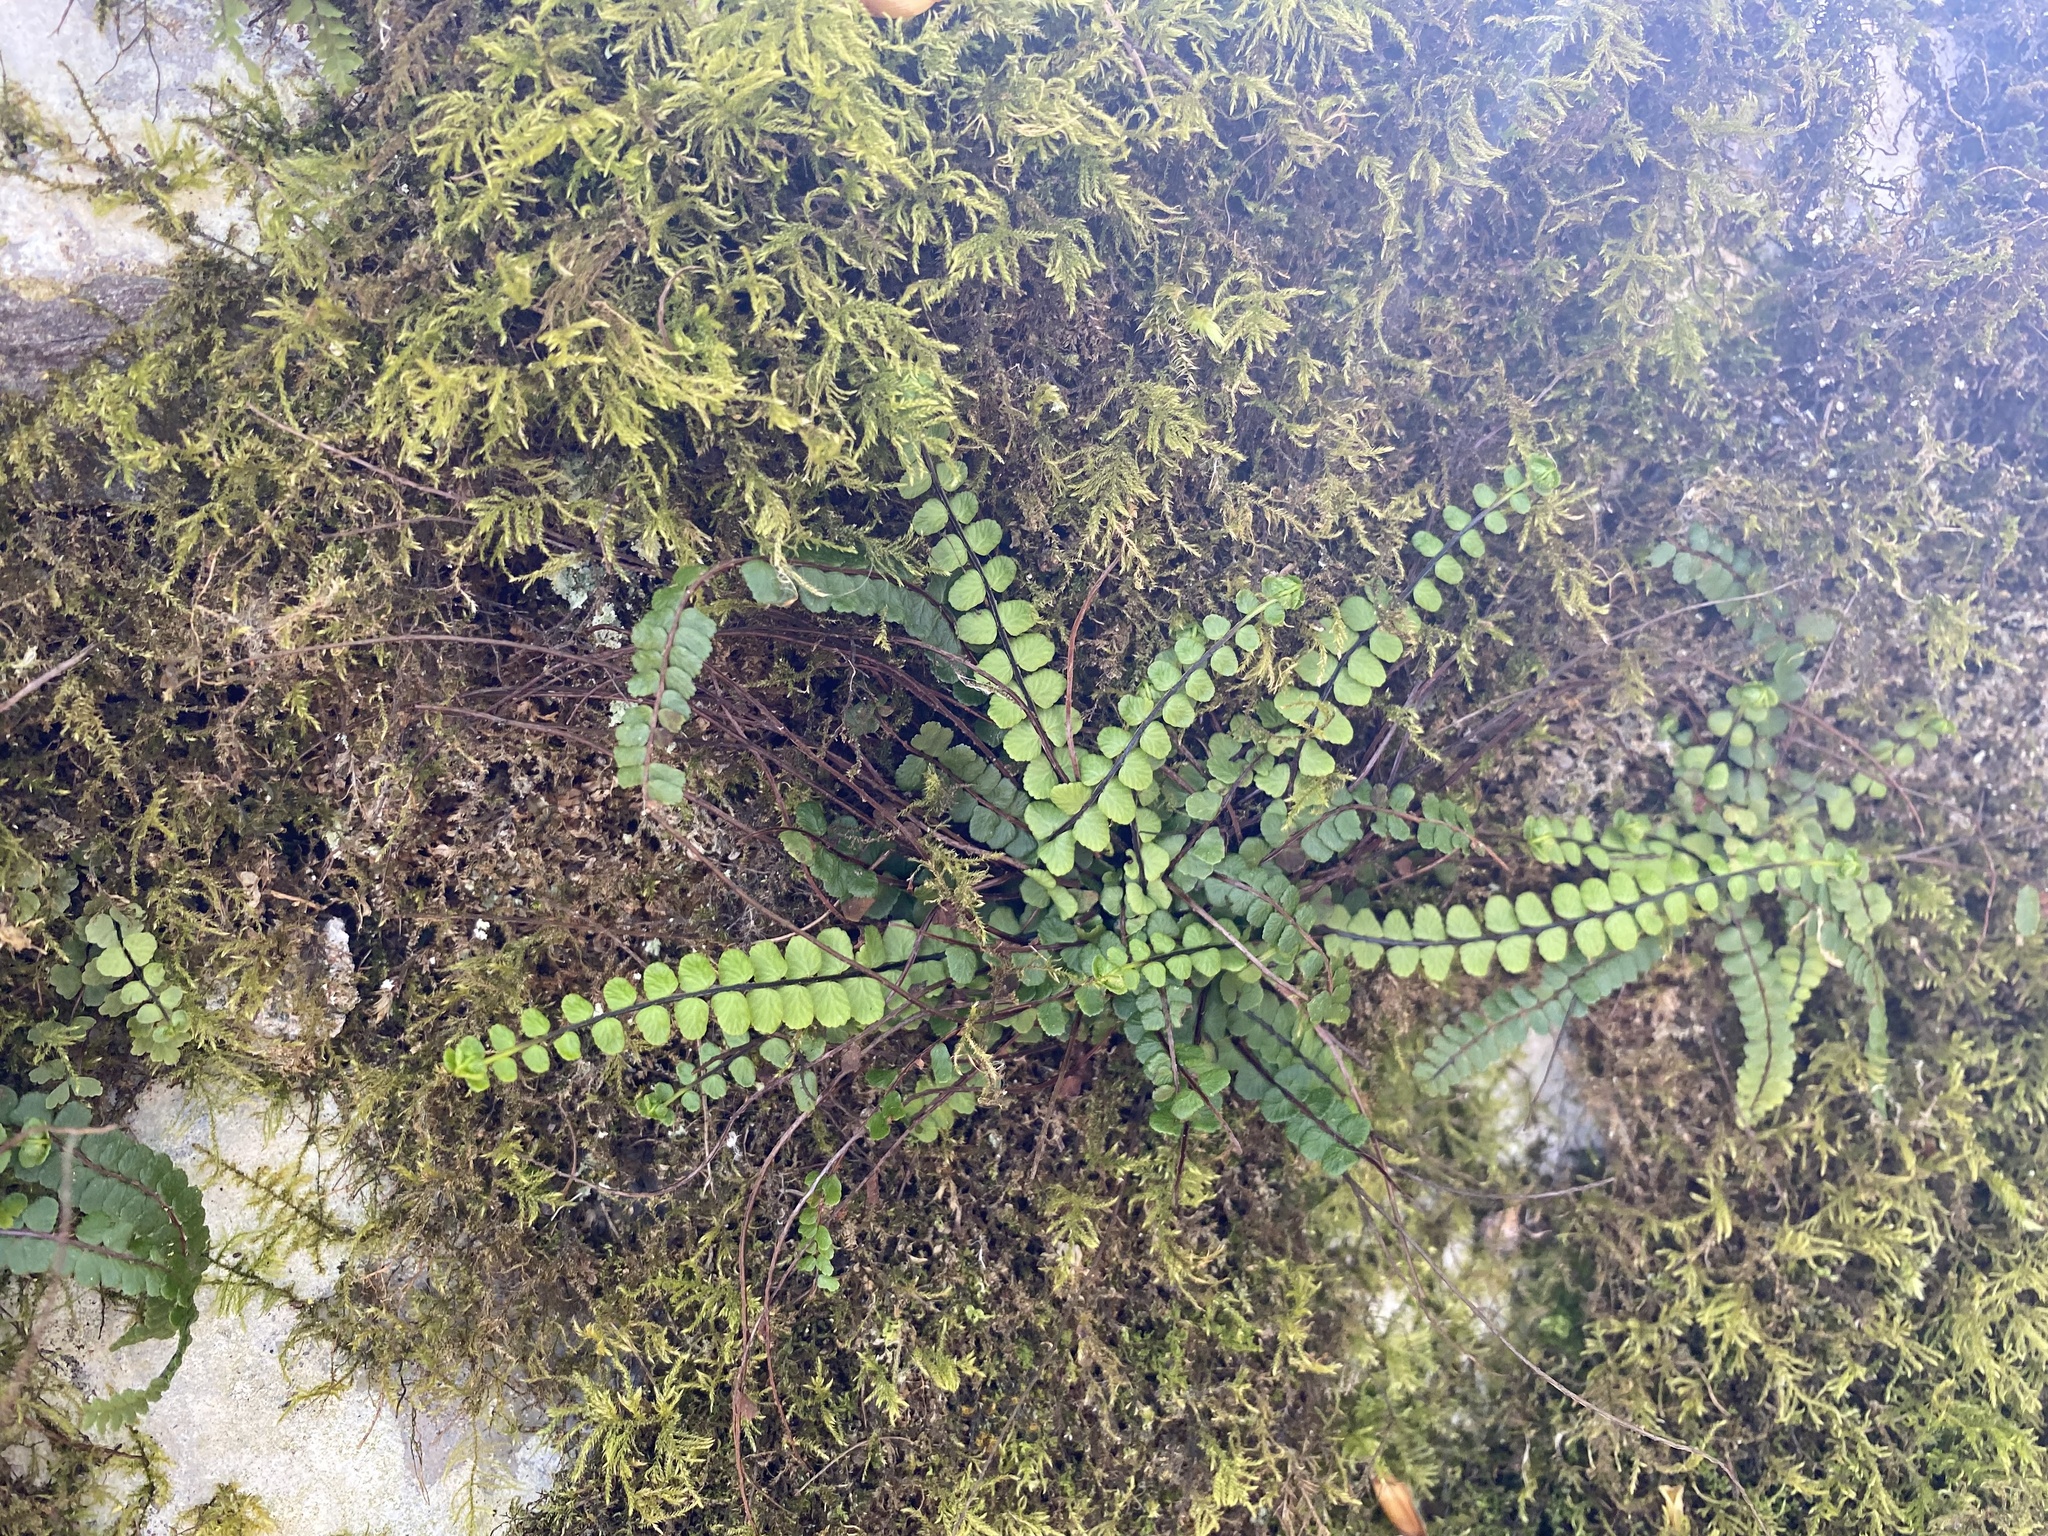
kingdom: Plantae
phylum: Tracheophyta
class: Polypodiopsida
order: Polypodiales
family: Aspleniaceae
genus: Asplenium
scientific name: Asplenium trichomanes
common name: Maidenhair spleenwort
